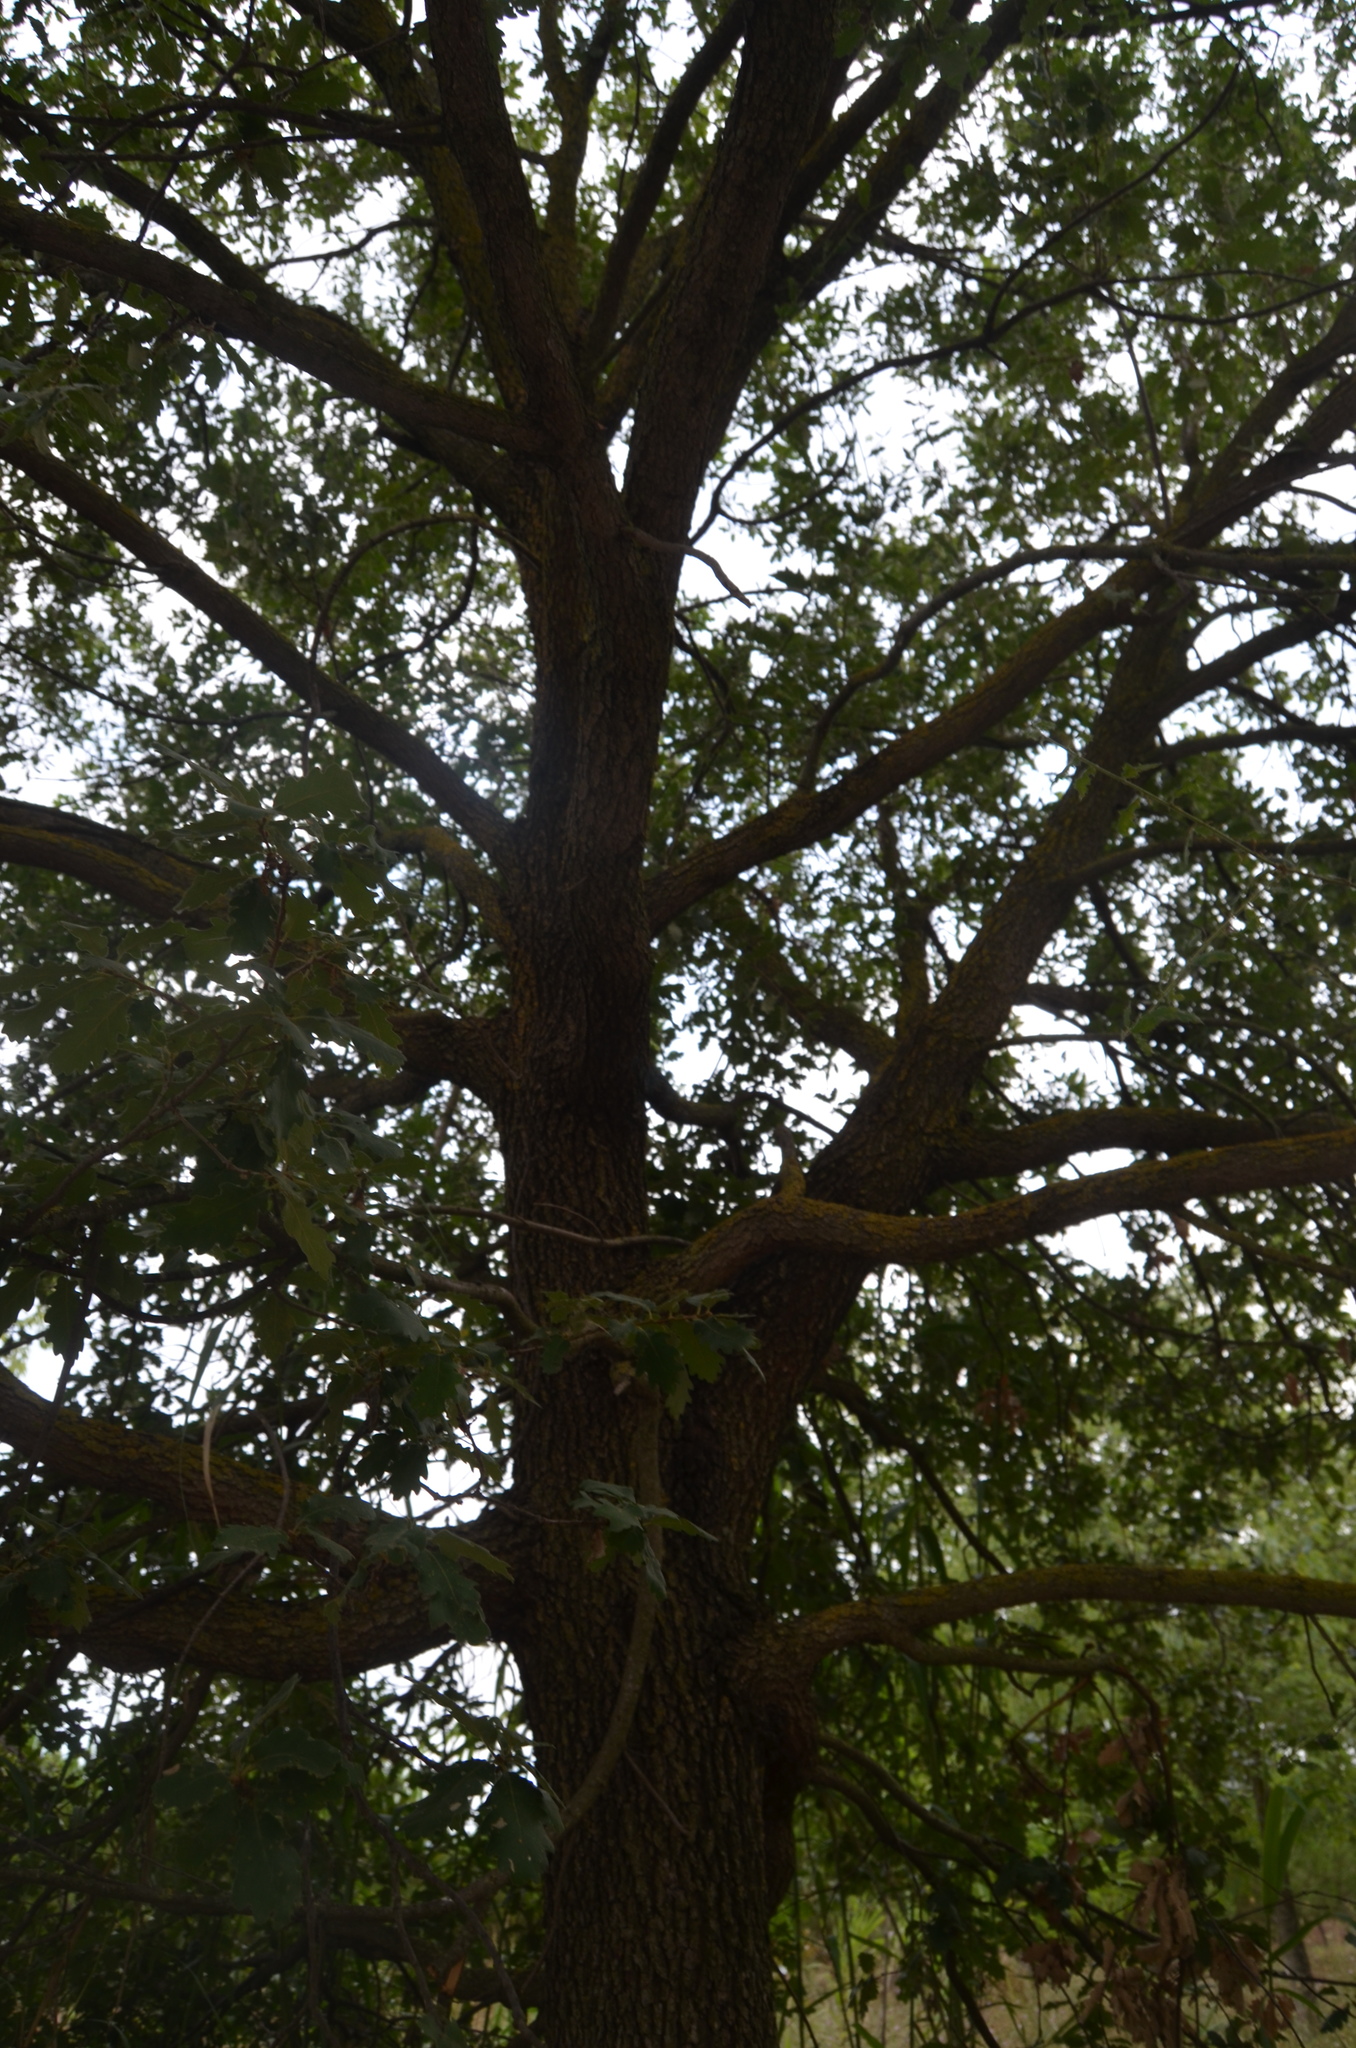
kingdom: Plantae
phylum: Tracheophyta
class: Magnoliopsida
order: Fagales
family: Fagaceae
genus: Quercus
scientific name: Quercus pubescens
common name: Downy oak
